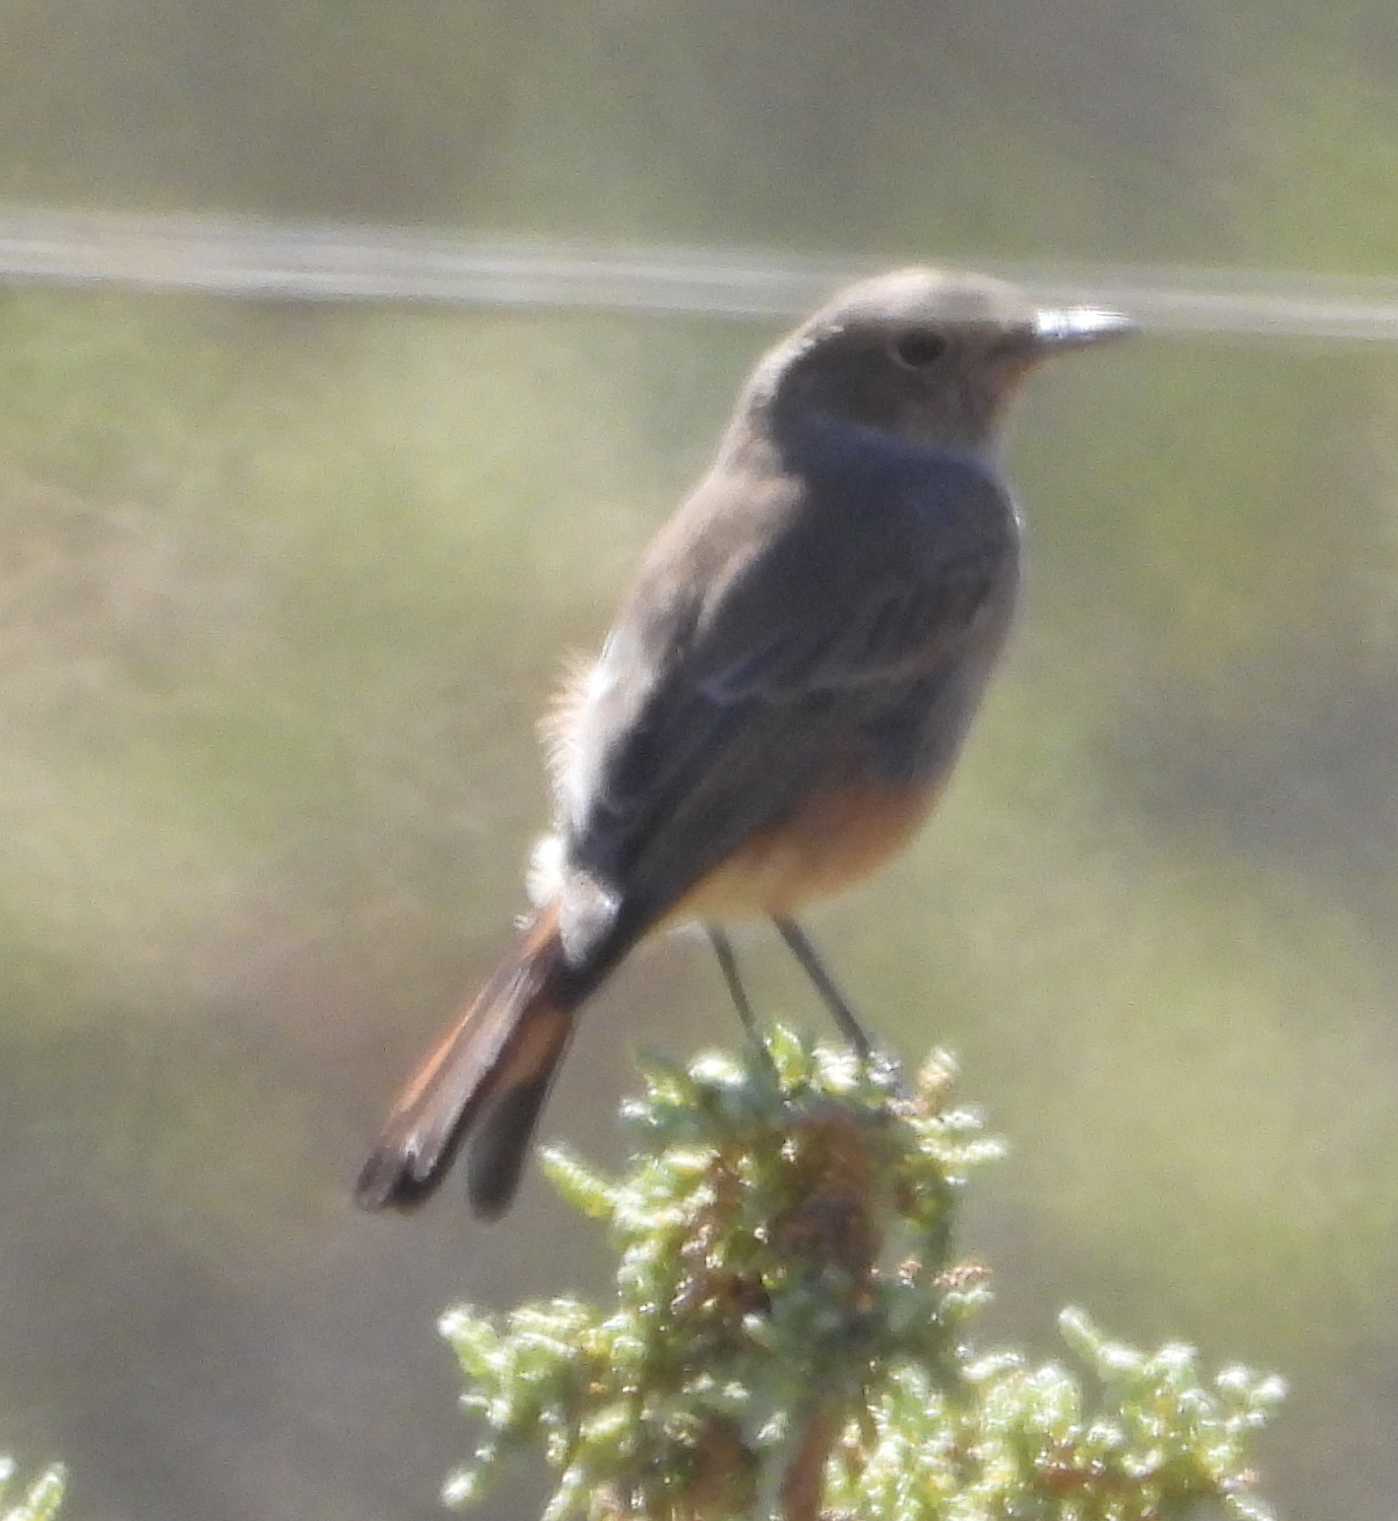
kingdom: Animalia
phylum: Chordata
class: Aves
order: Passeriformes
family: Muscicapidae
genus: Oenanthe
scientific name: Oenanthe familiaris
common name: Familiar chat
